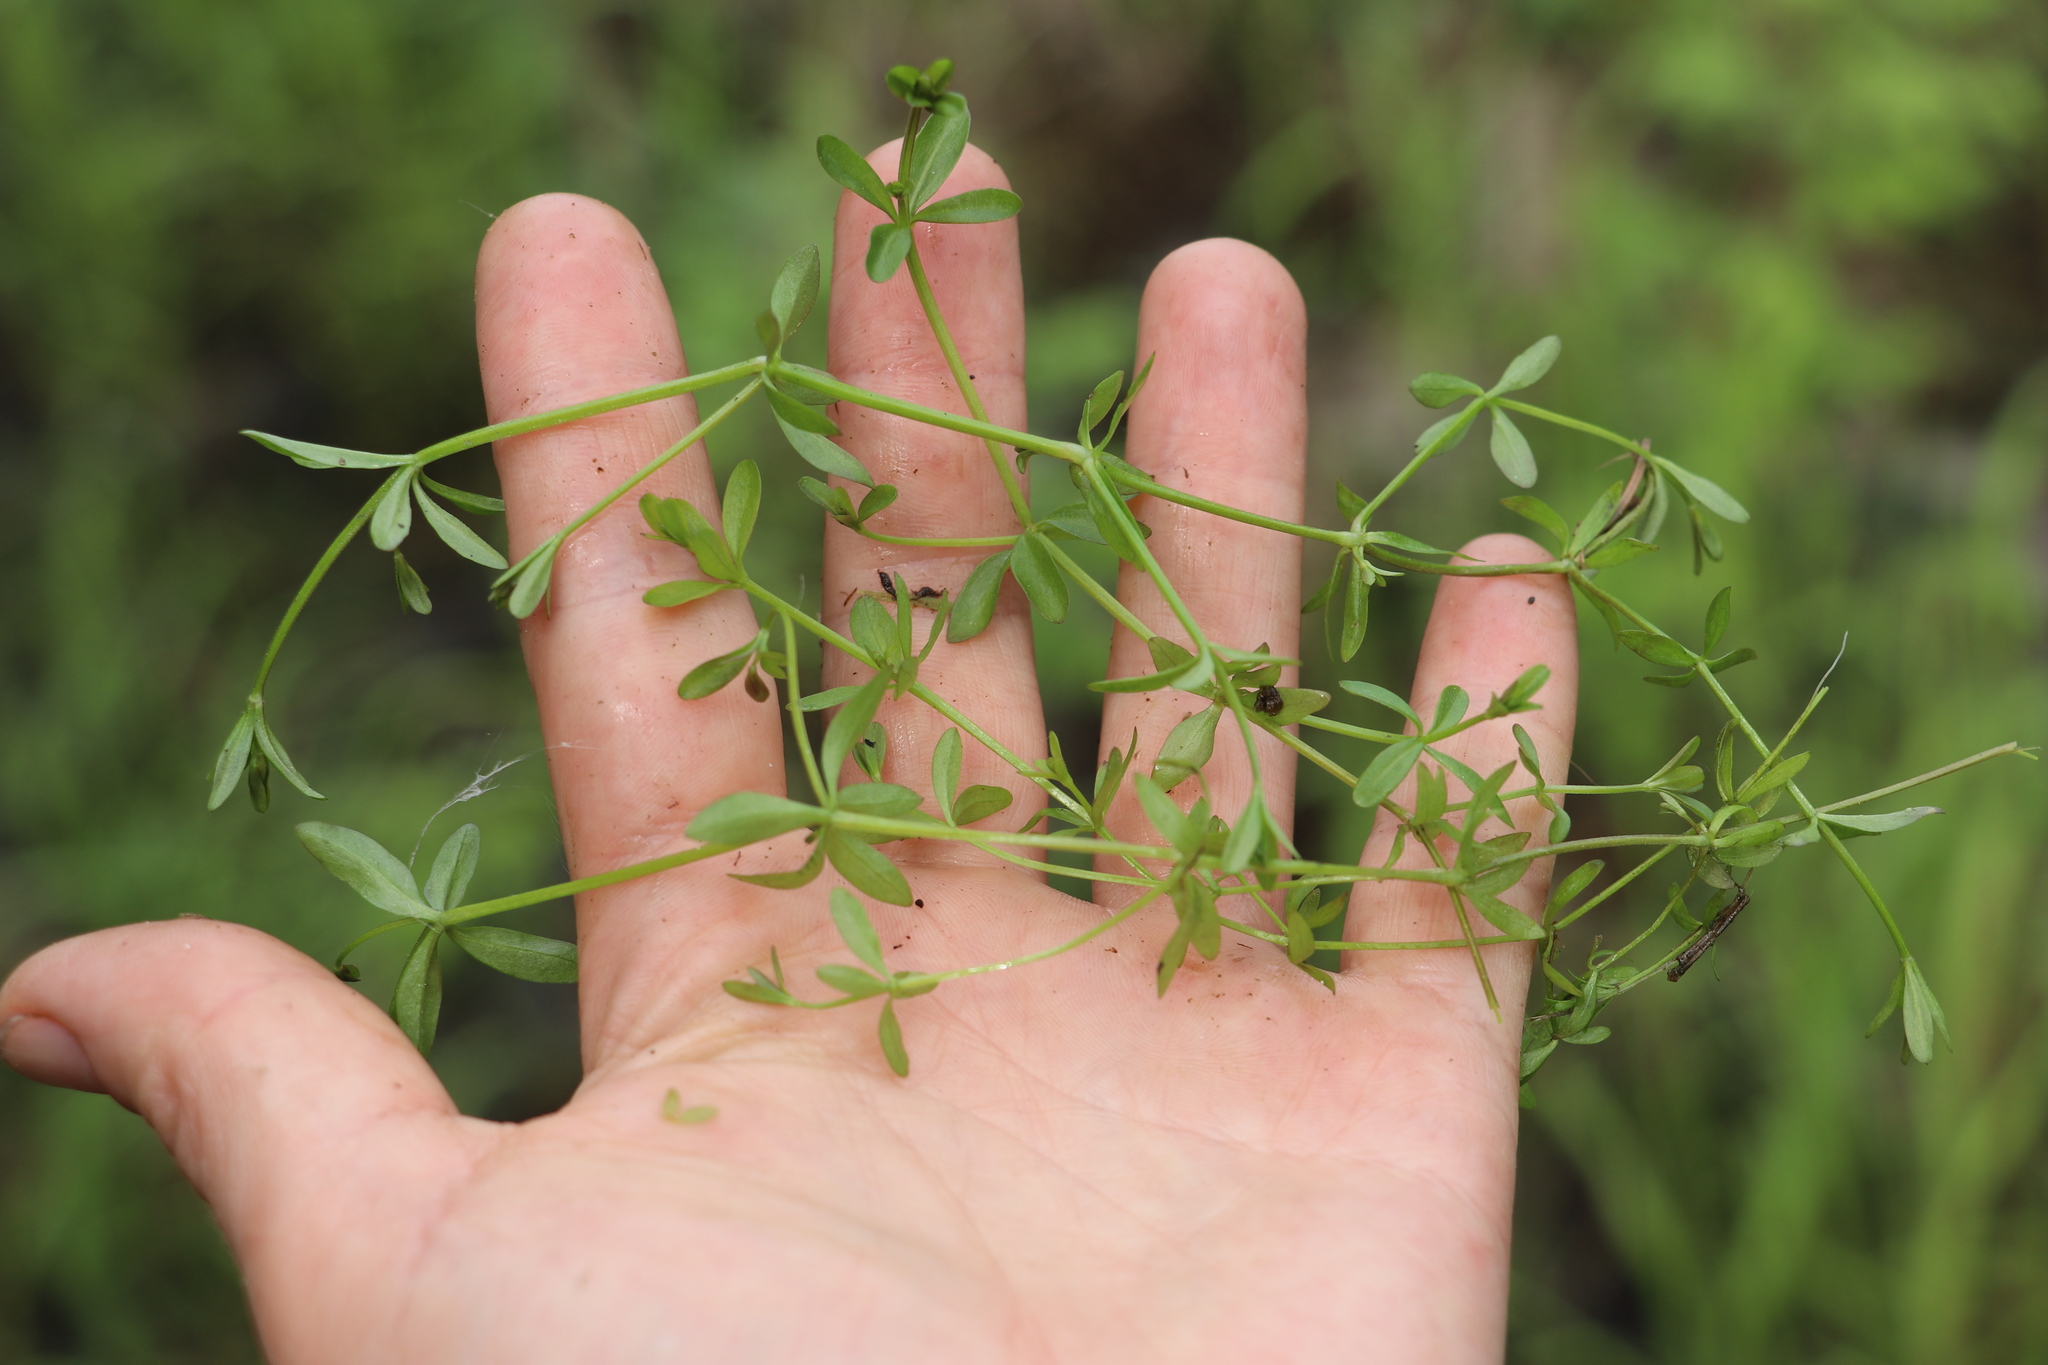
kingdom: Plantae
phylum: Tracheophyta
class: Magnoliopsida
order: Gentianales
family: Rubiaceae
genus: Galium
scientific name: Galium palustre
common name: Common marsh-bedstraw
